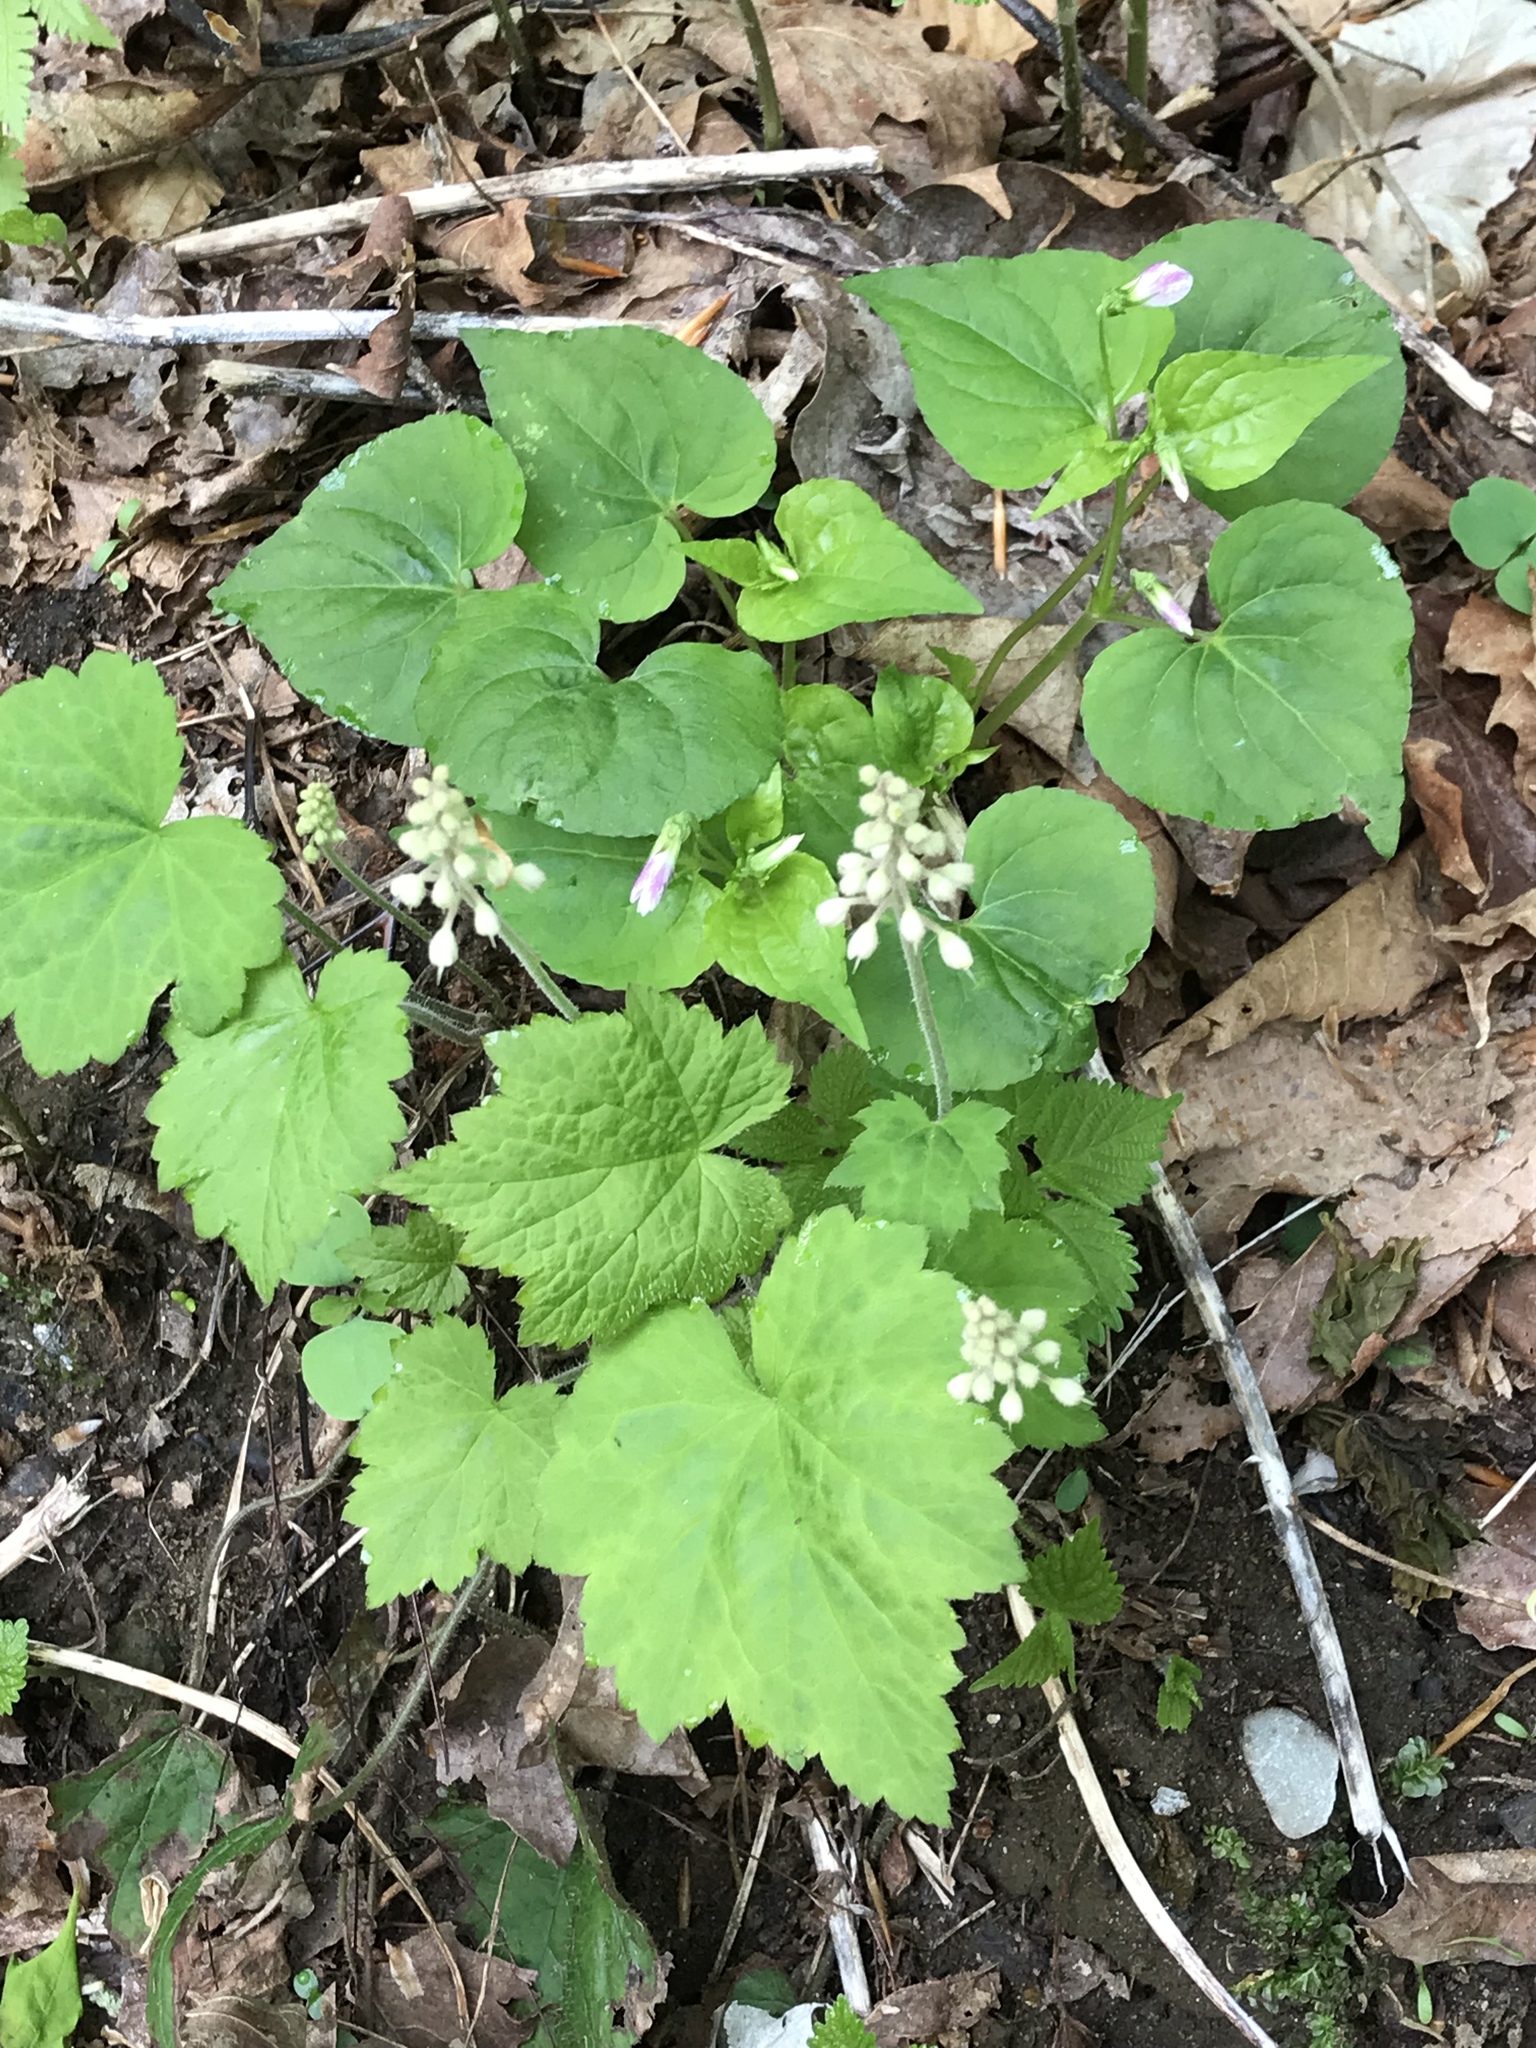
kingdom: Plantae
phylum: Tracheophyta
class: Magnoliopsida
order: Saxifragales
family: Saxifragaceae
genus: Tiarella
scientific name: Tiarella stolonifera
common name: Stoloniferous foamflower
